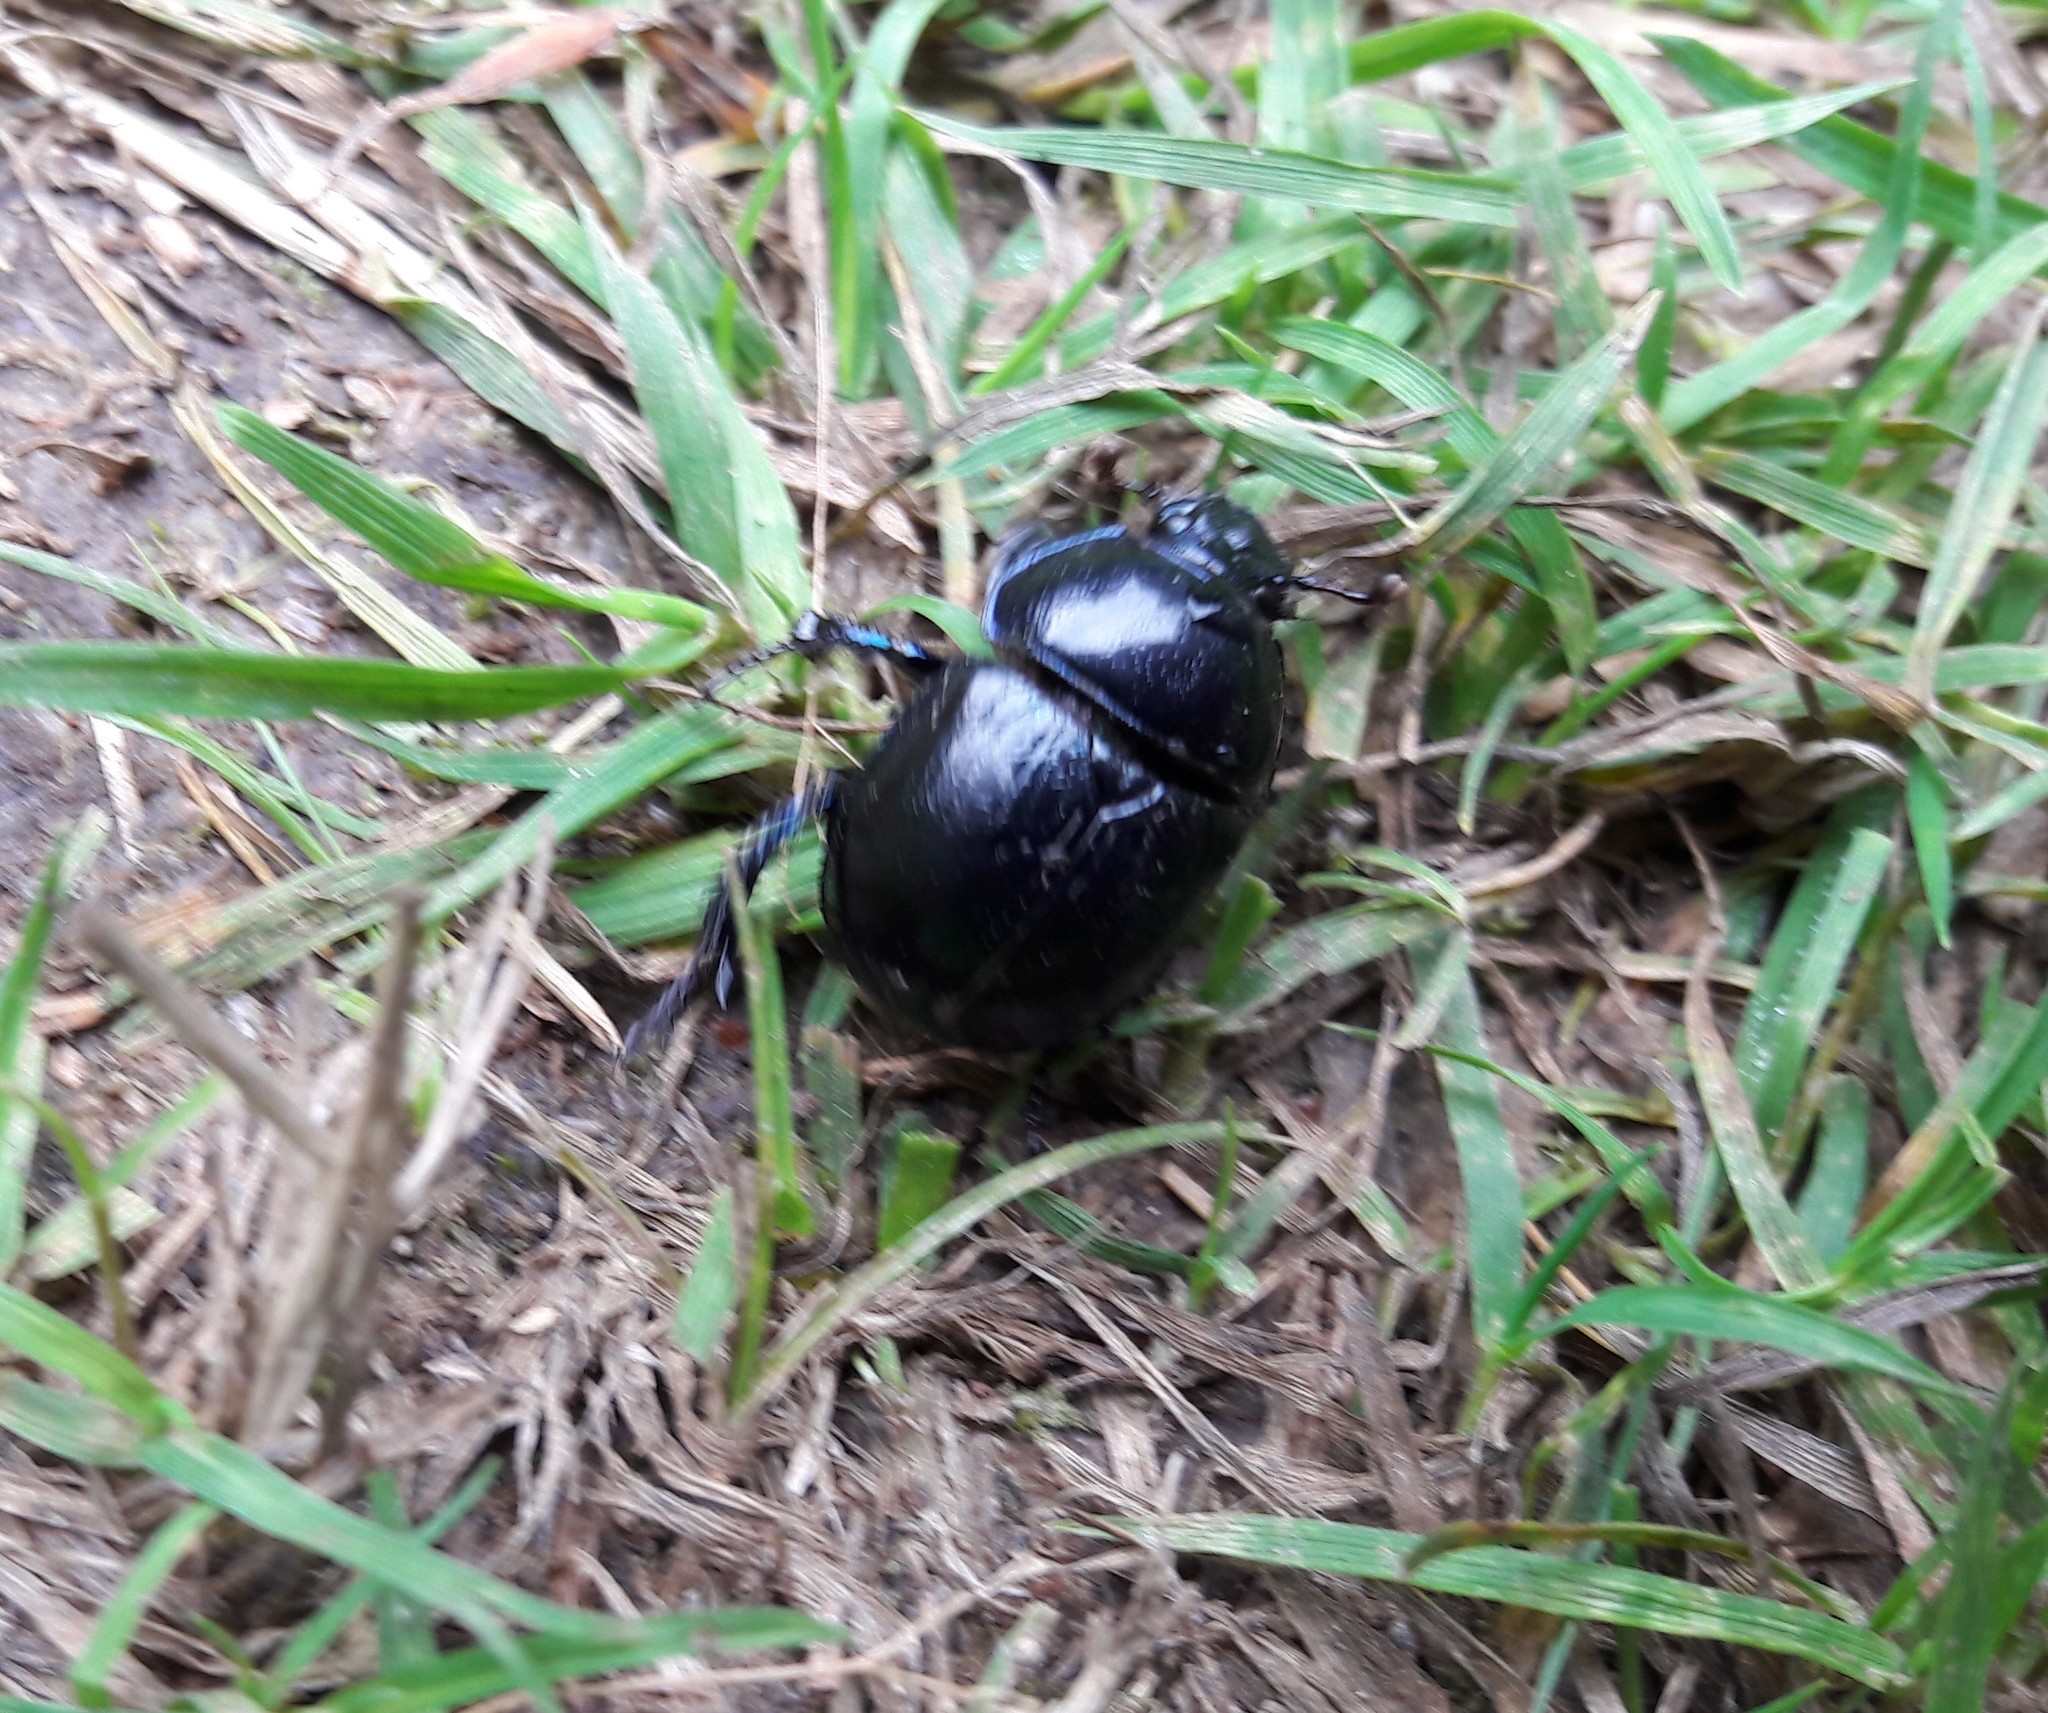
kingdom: Animalia
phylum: Arthropoda
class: Insecta
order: Coleoptera
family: Geotrupidae
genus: Anoplotrupes
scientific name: Anoplotrupes stercorosus
